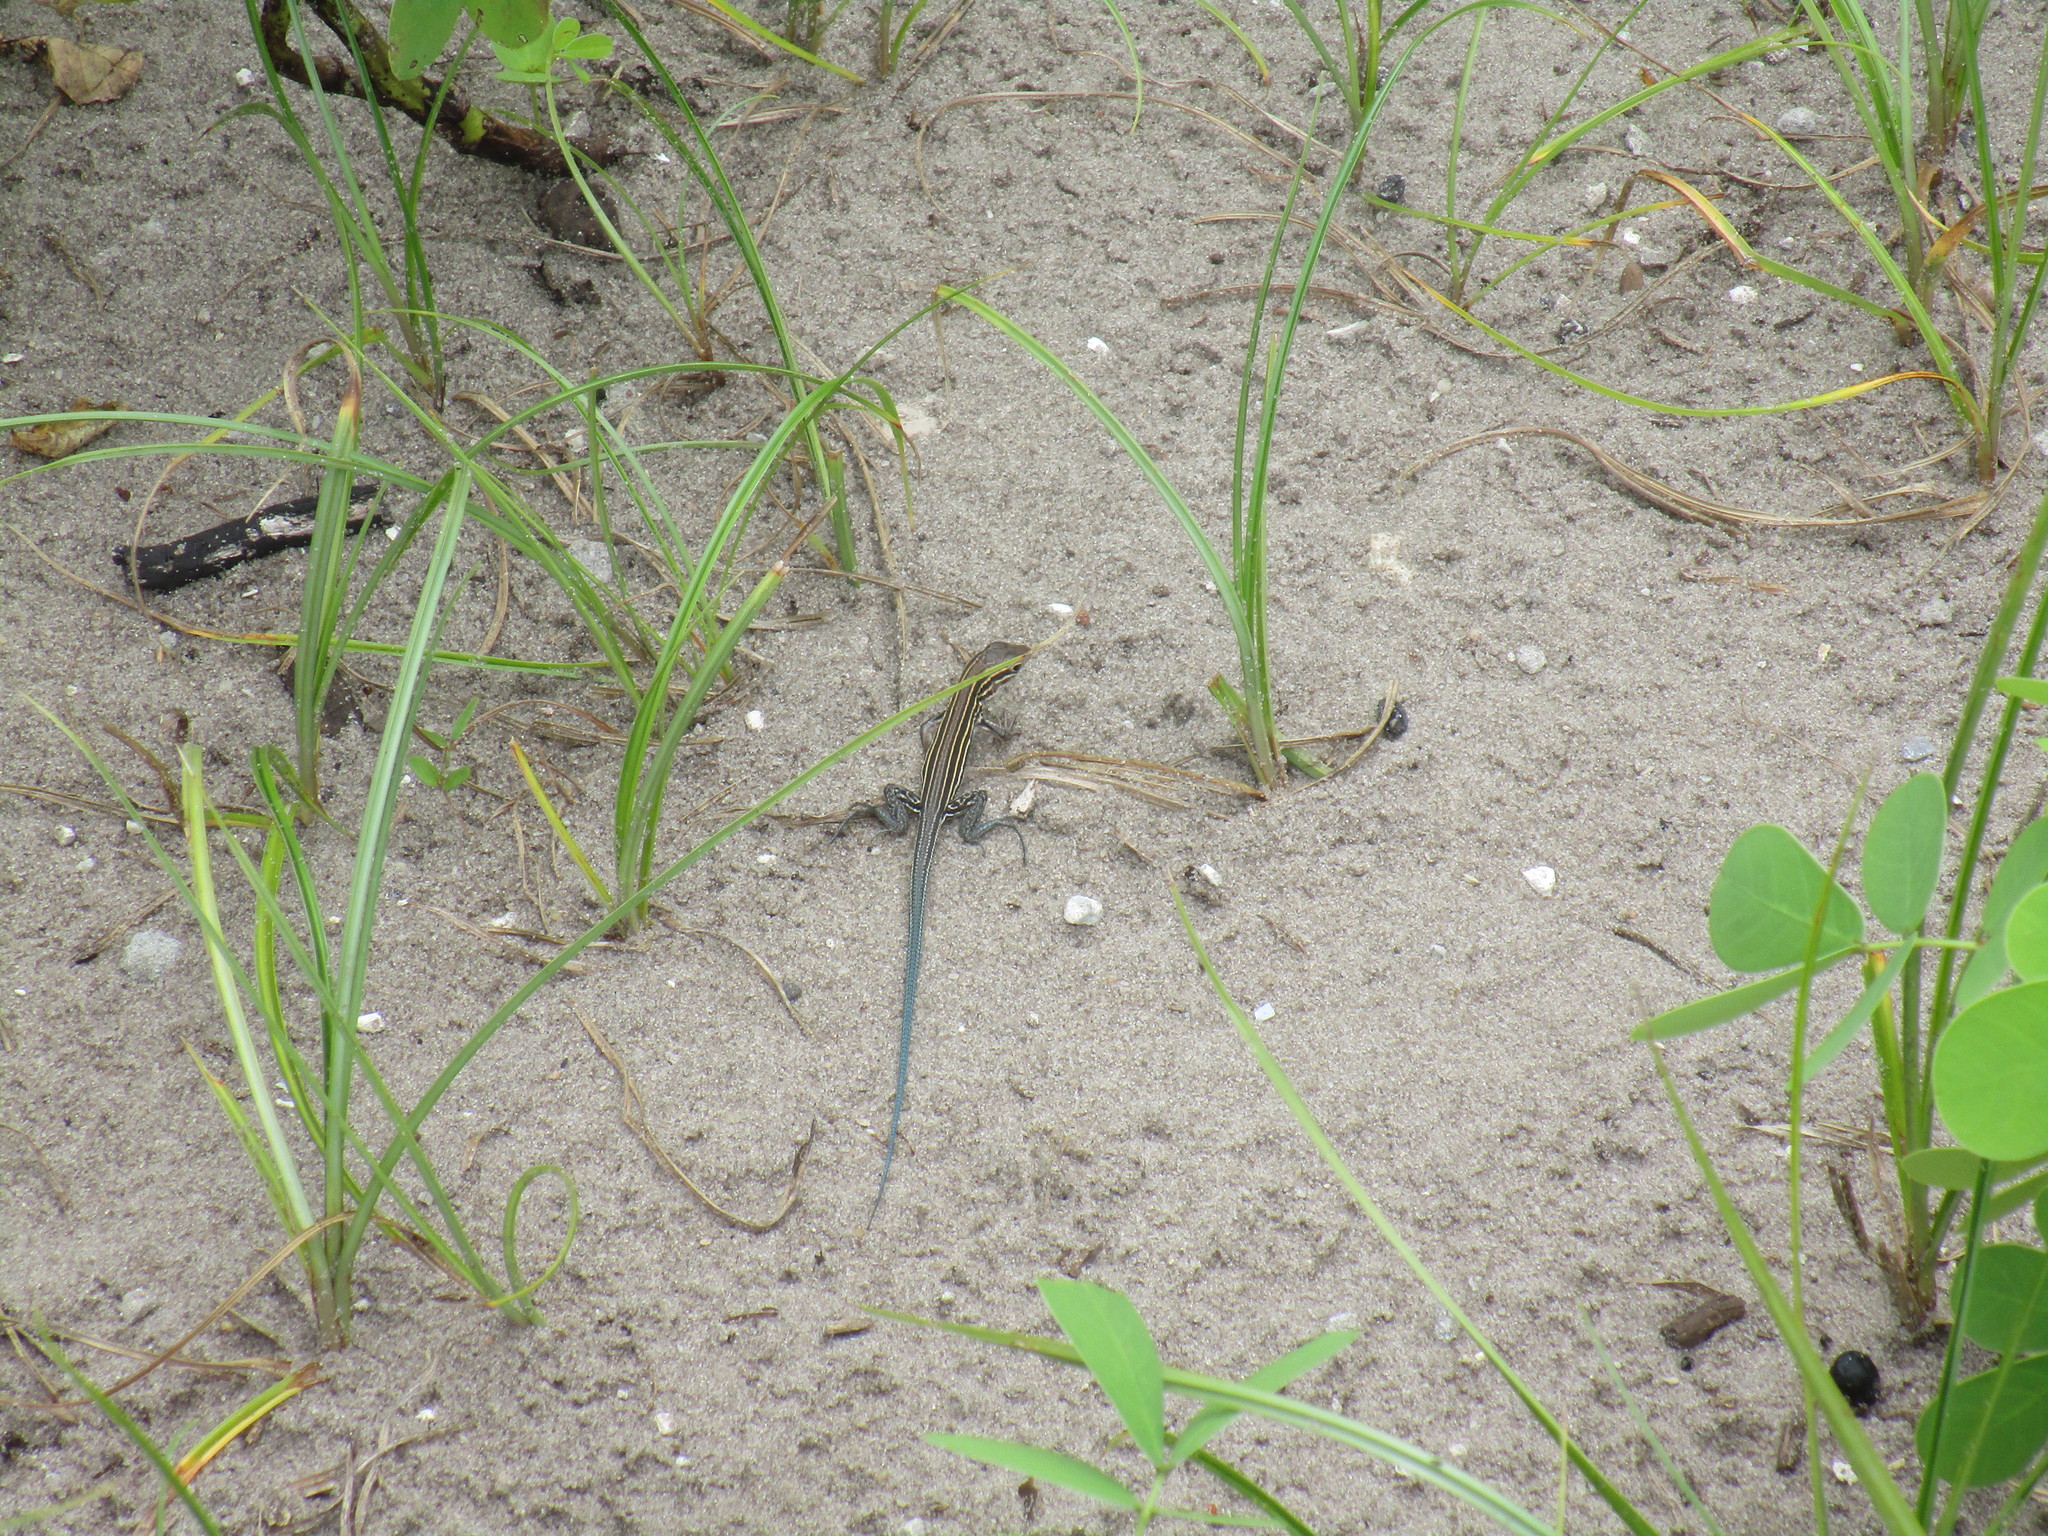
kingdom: Animalia
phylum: Chordata
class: Squamata
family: Teiidae
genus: Aspidoscelis
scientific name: Aspidoscelis sexlineatus
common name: Six-lined racerunner
